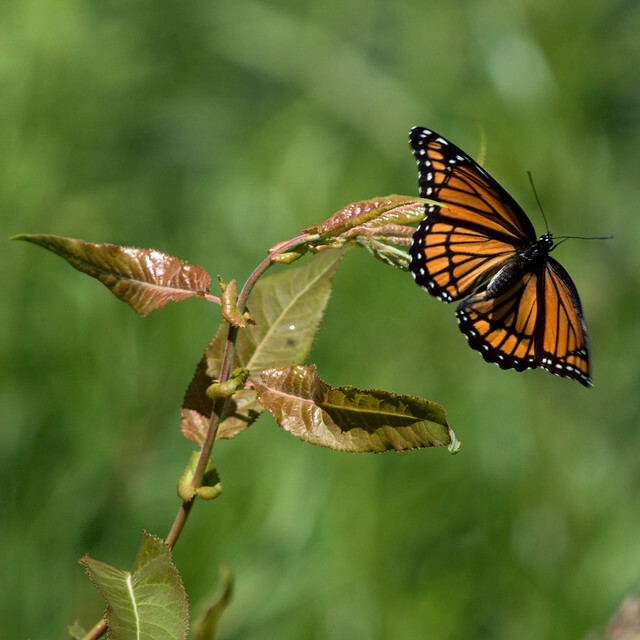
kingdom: Animalia
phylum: Arthropoda
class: Insecta
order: Lepidoptera
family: Nymphalidae
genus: Limenitis
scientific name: Limenitis archippus
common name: Viceroy
